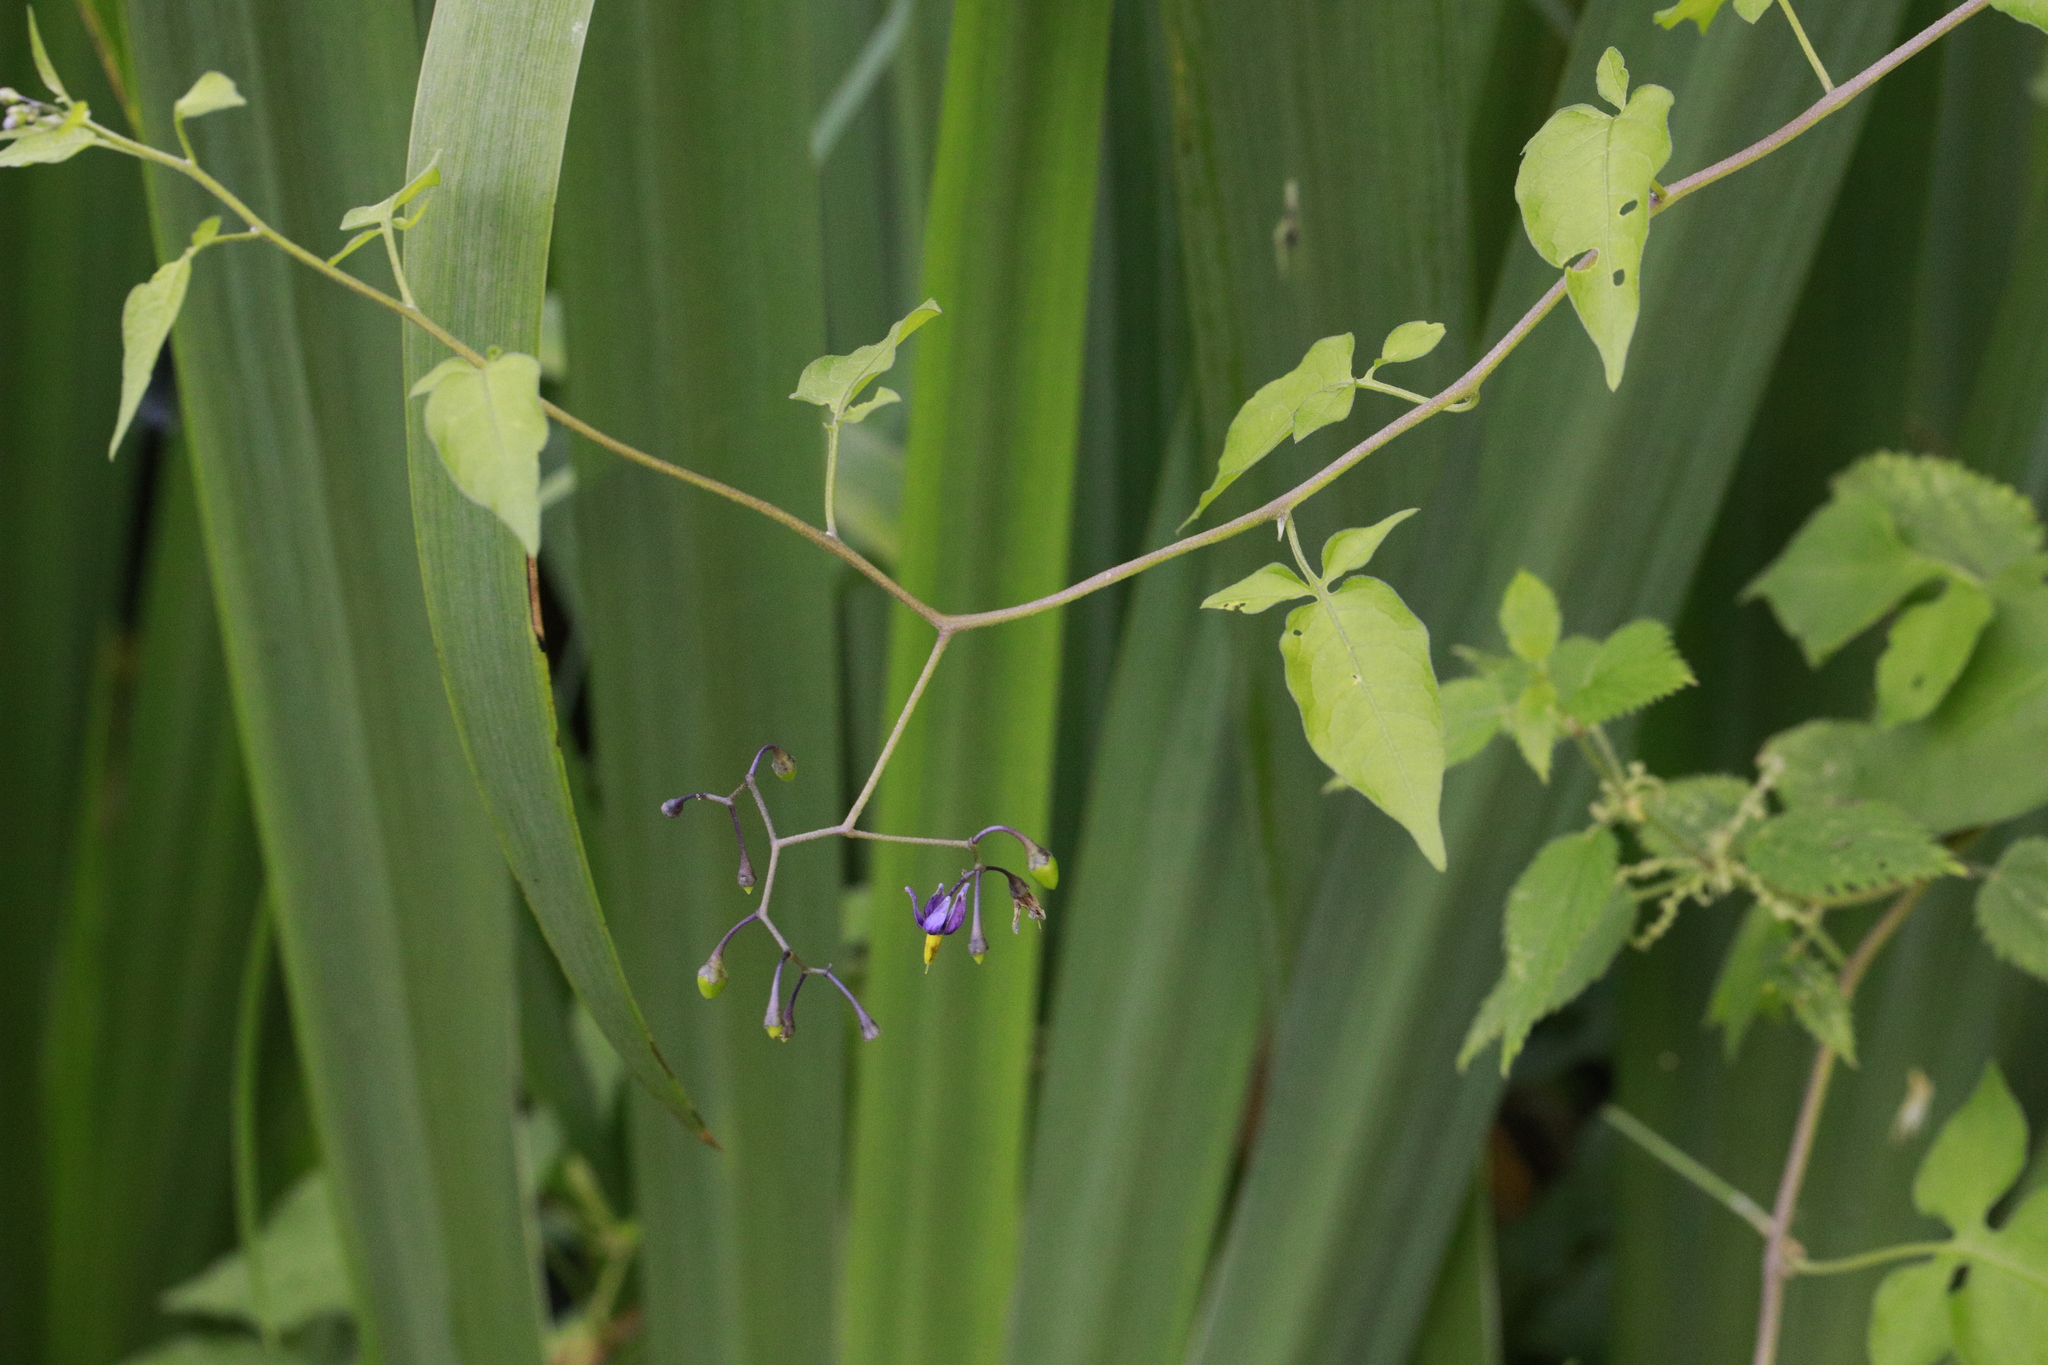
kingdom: Plantae
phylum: Tracheophyta
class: Magnoliopsida
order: Solanales
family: Solanaceae
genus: Solanum
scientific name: Solanum dulcamara
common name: Climbing nightshade
